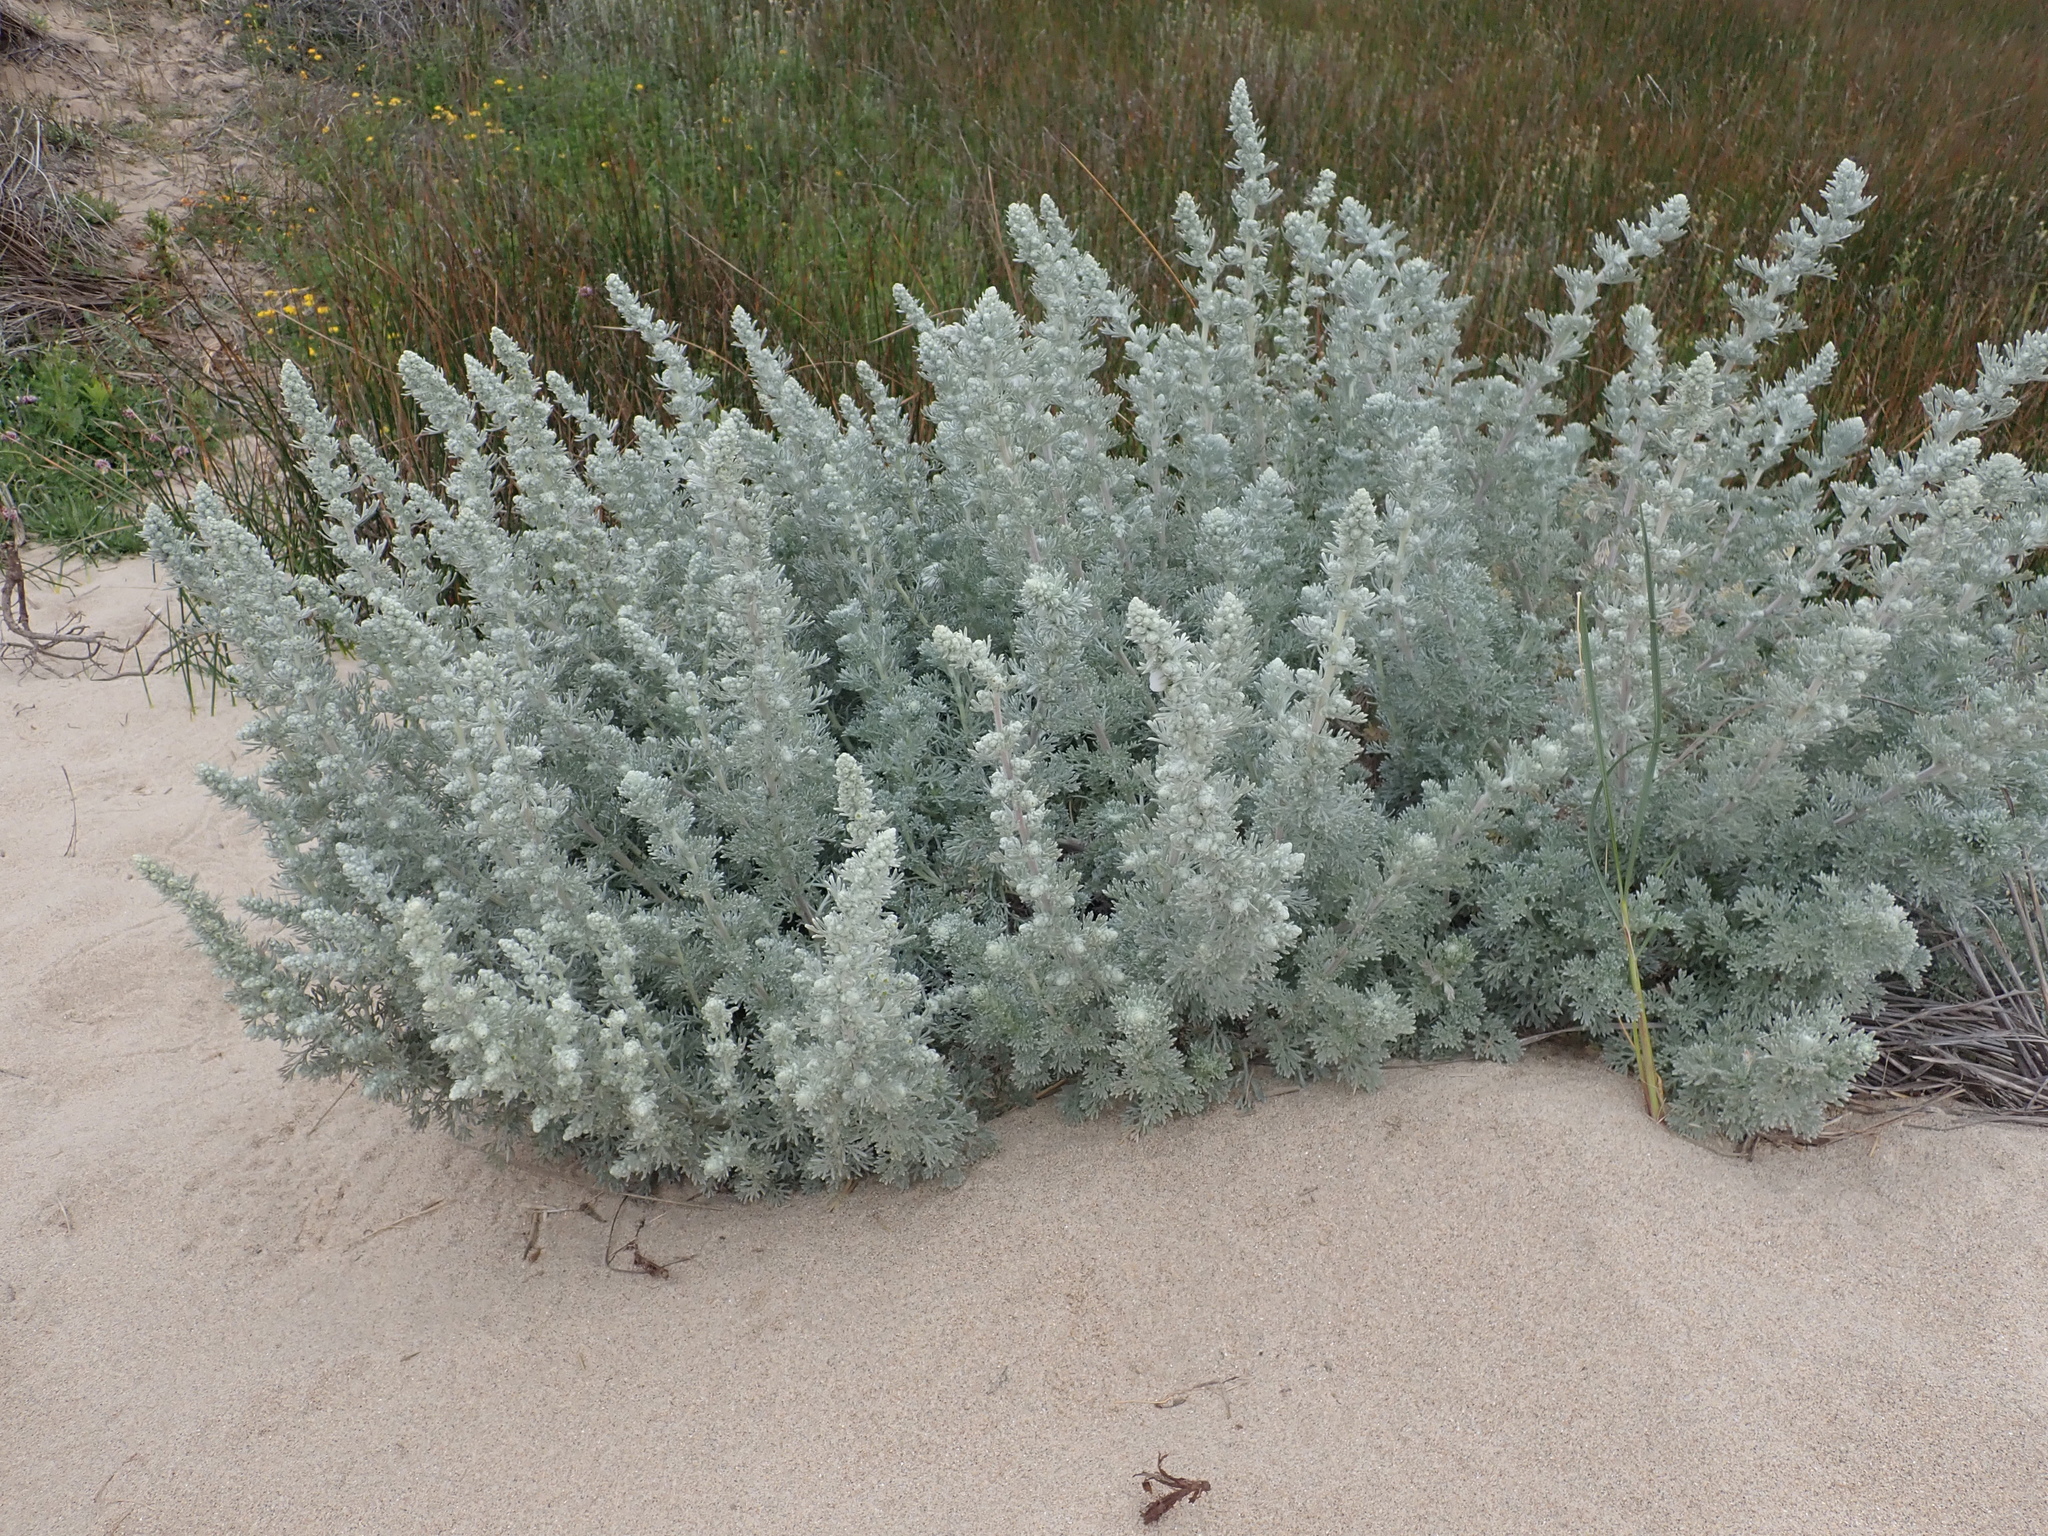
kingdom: Plantae
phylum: Tracheophyta
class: Magnoliopsida
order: Asterales
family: Asteraceae
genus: Artemisia
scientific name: Artemisia pycnocephala
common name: Coastal sagewort
